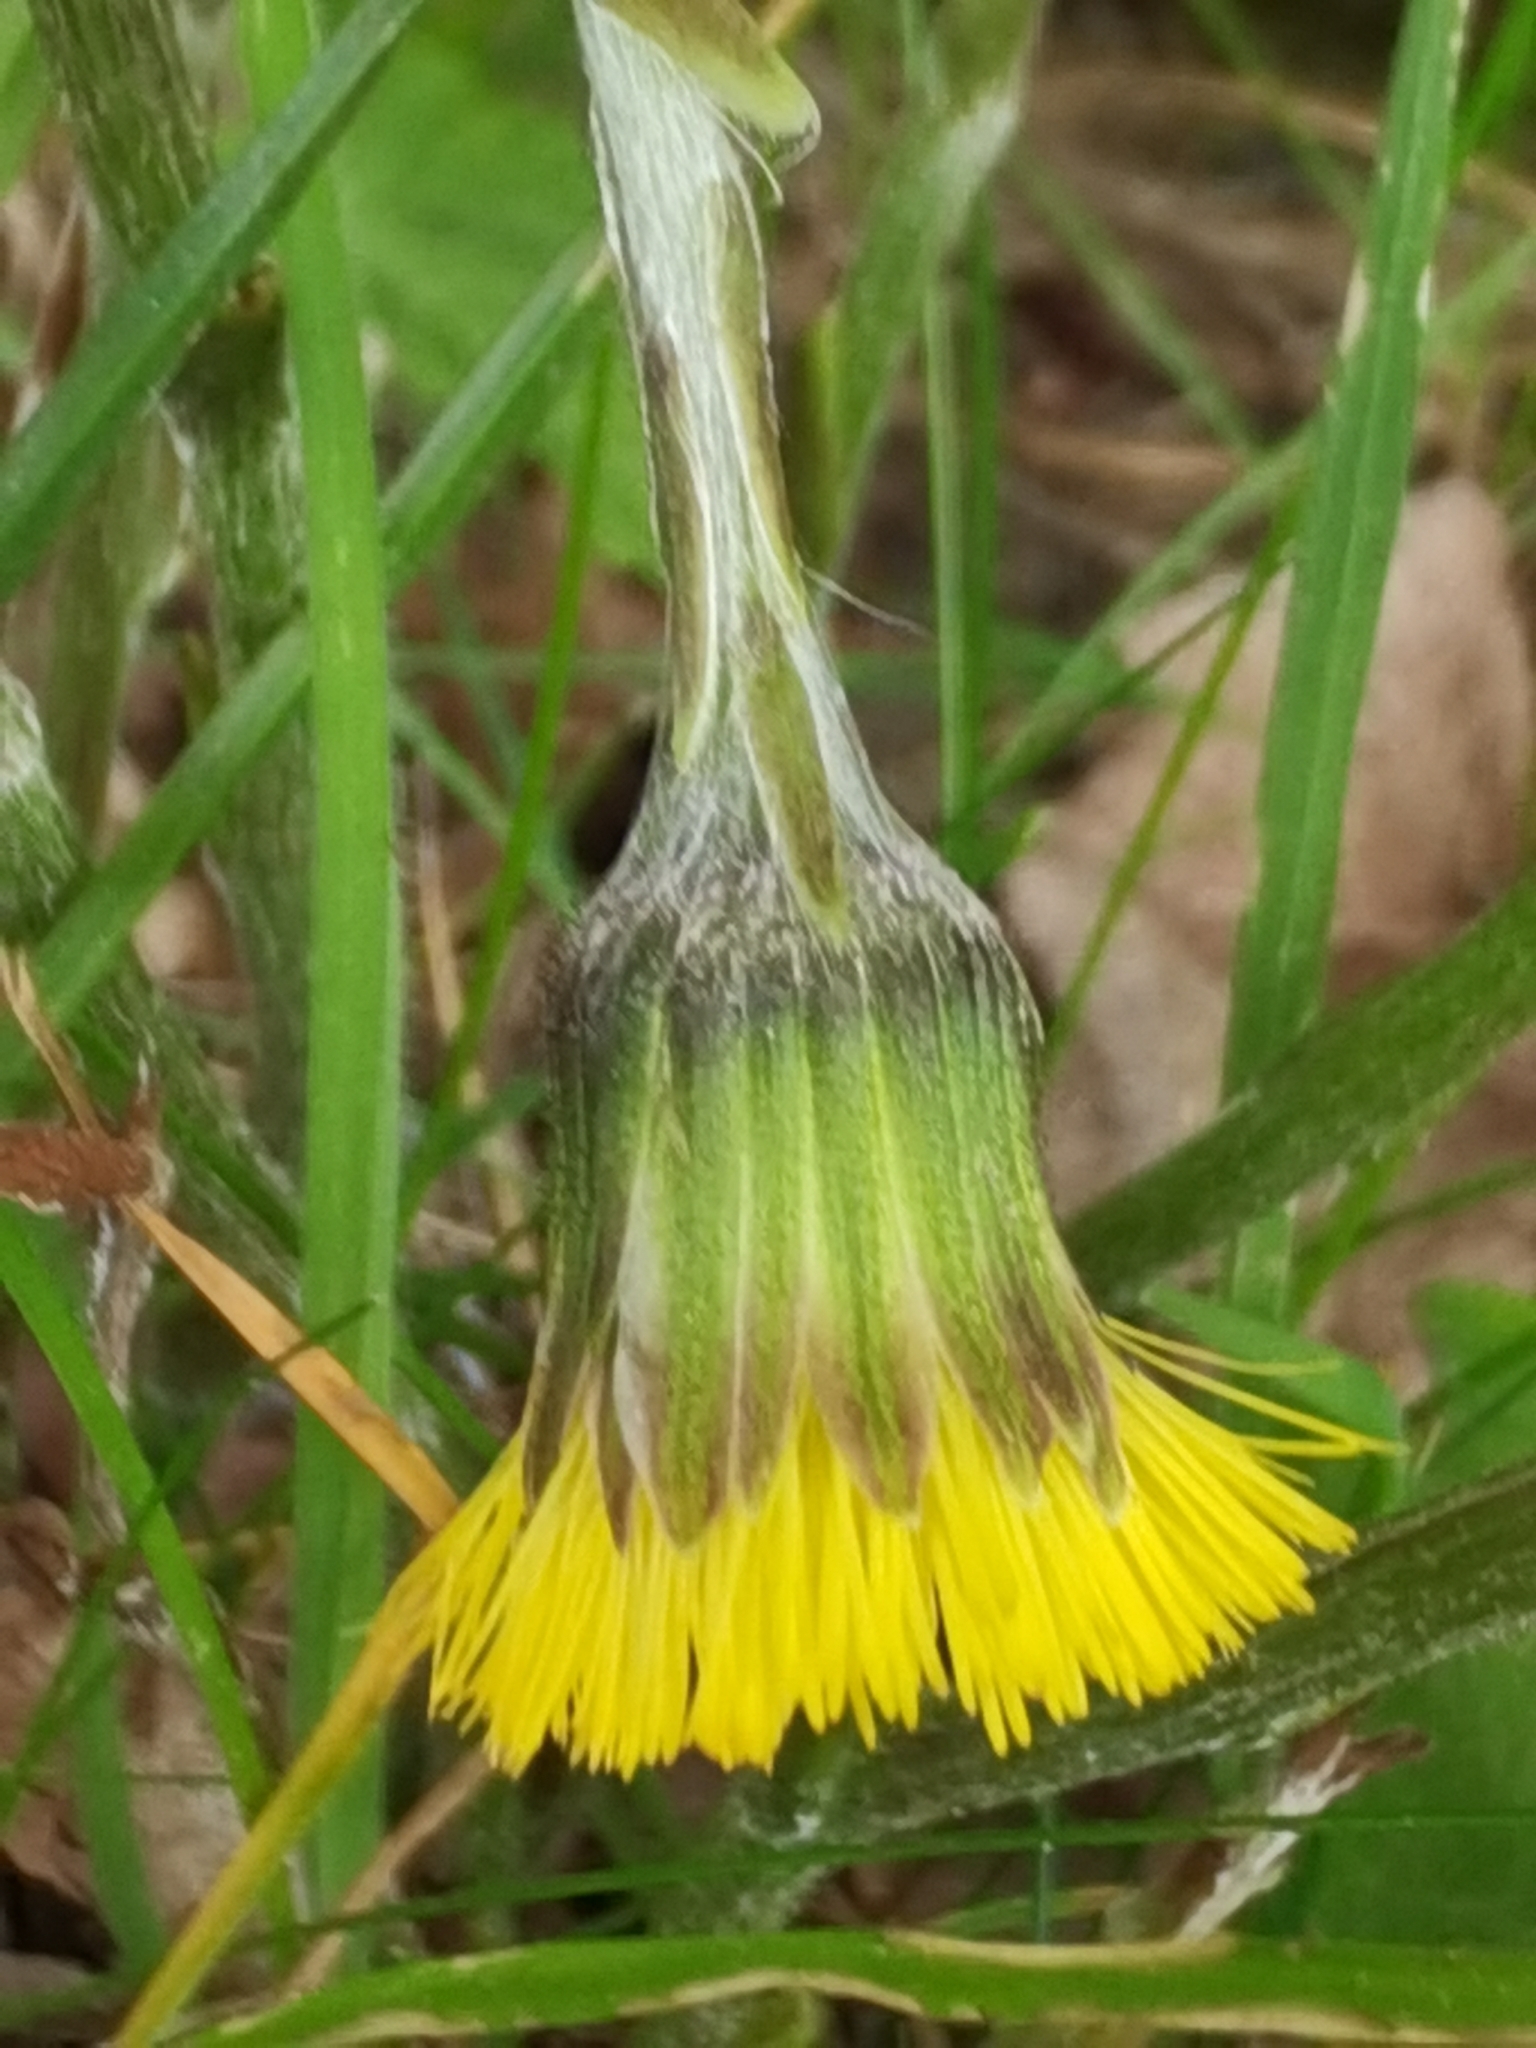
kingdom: Plantae
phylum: Tracheophyta
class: Magnoliopsida
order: Asterales
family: Asteraceae
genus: Tussilago
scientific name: Tussilago farfara
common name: Coltsfoot
